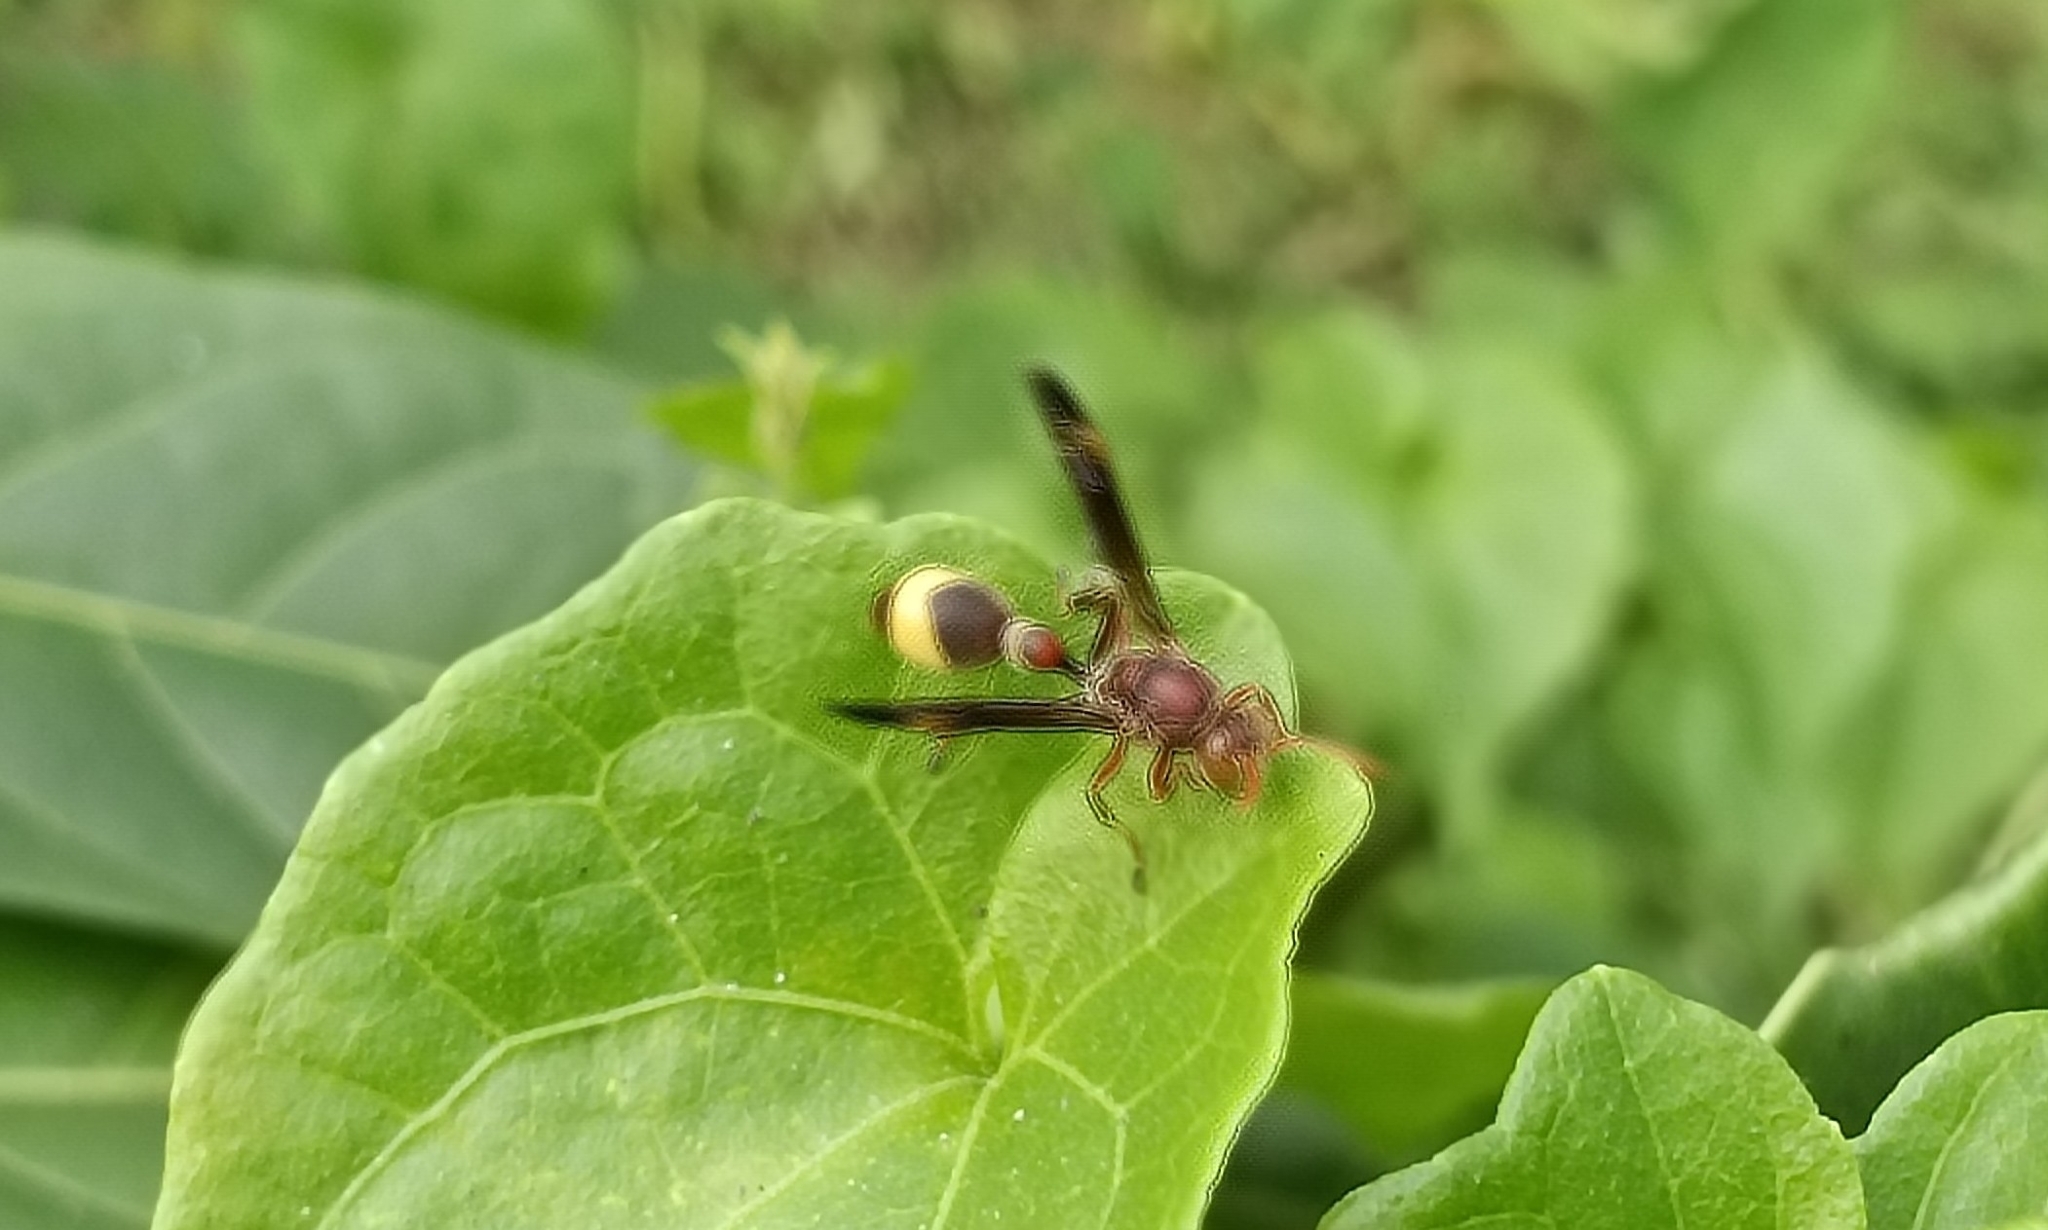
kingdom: Animalia
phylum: Arthropoda
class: Insecta
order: Hymenoptera
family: Vespidae
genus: Ropalidia
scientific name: Ropalidia
